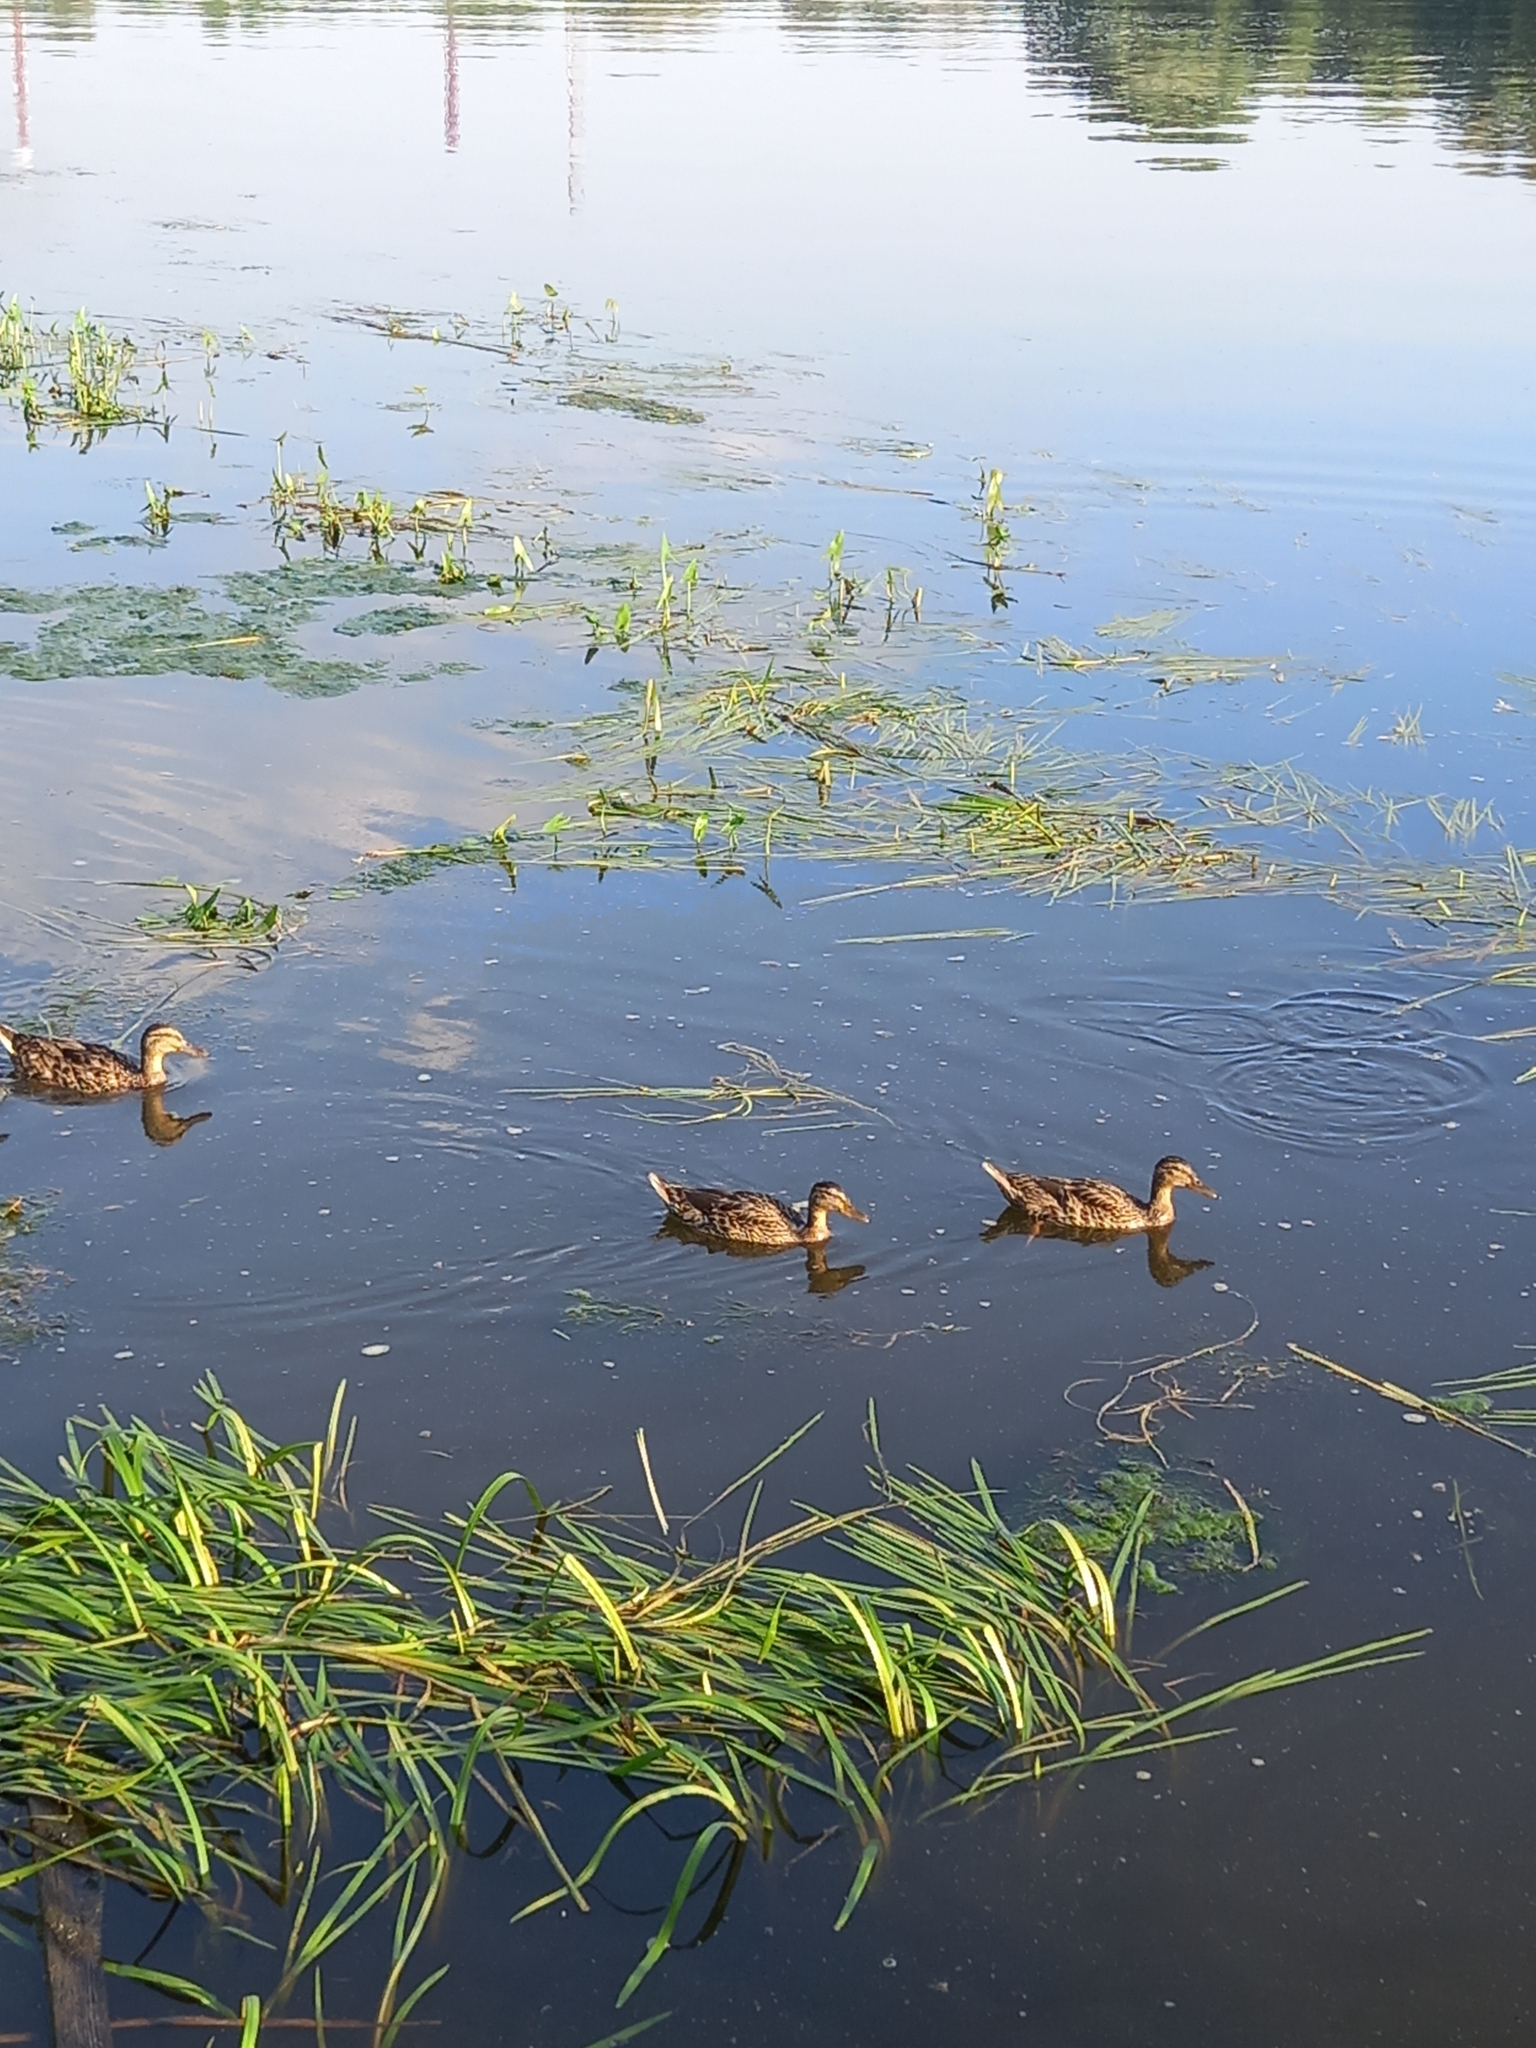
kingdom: Animalia
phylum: Chordata
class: Aves
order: Anseriformes
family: Anatidae
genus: Anas
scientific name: Anas platyrhynchos
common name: Mallard
